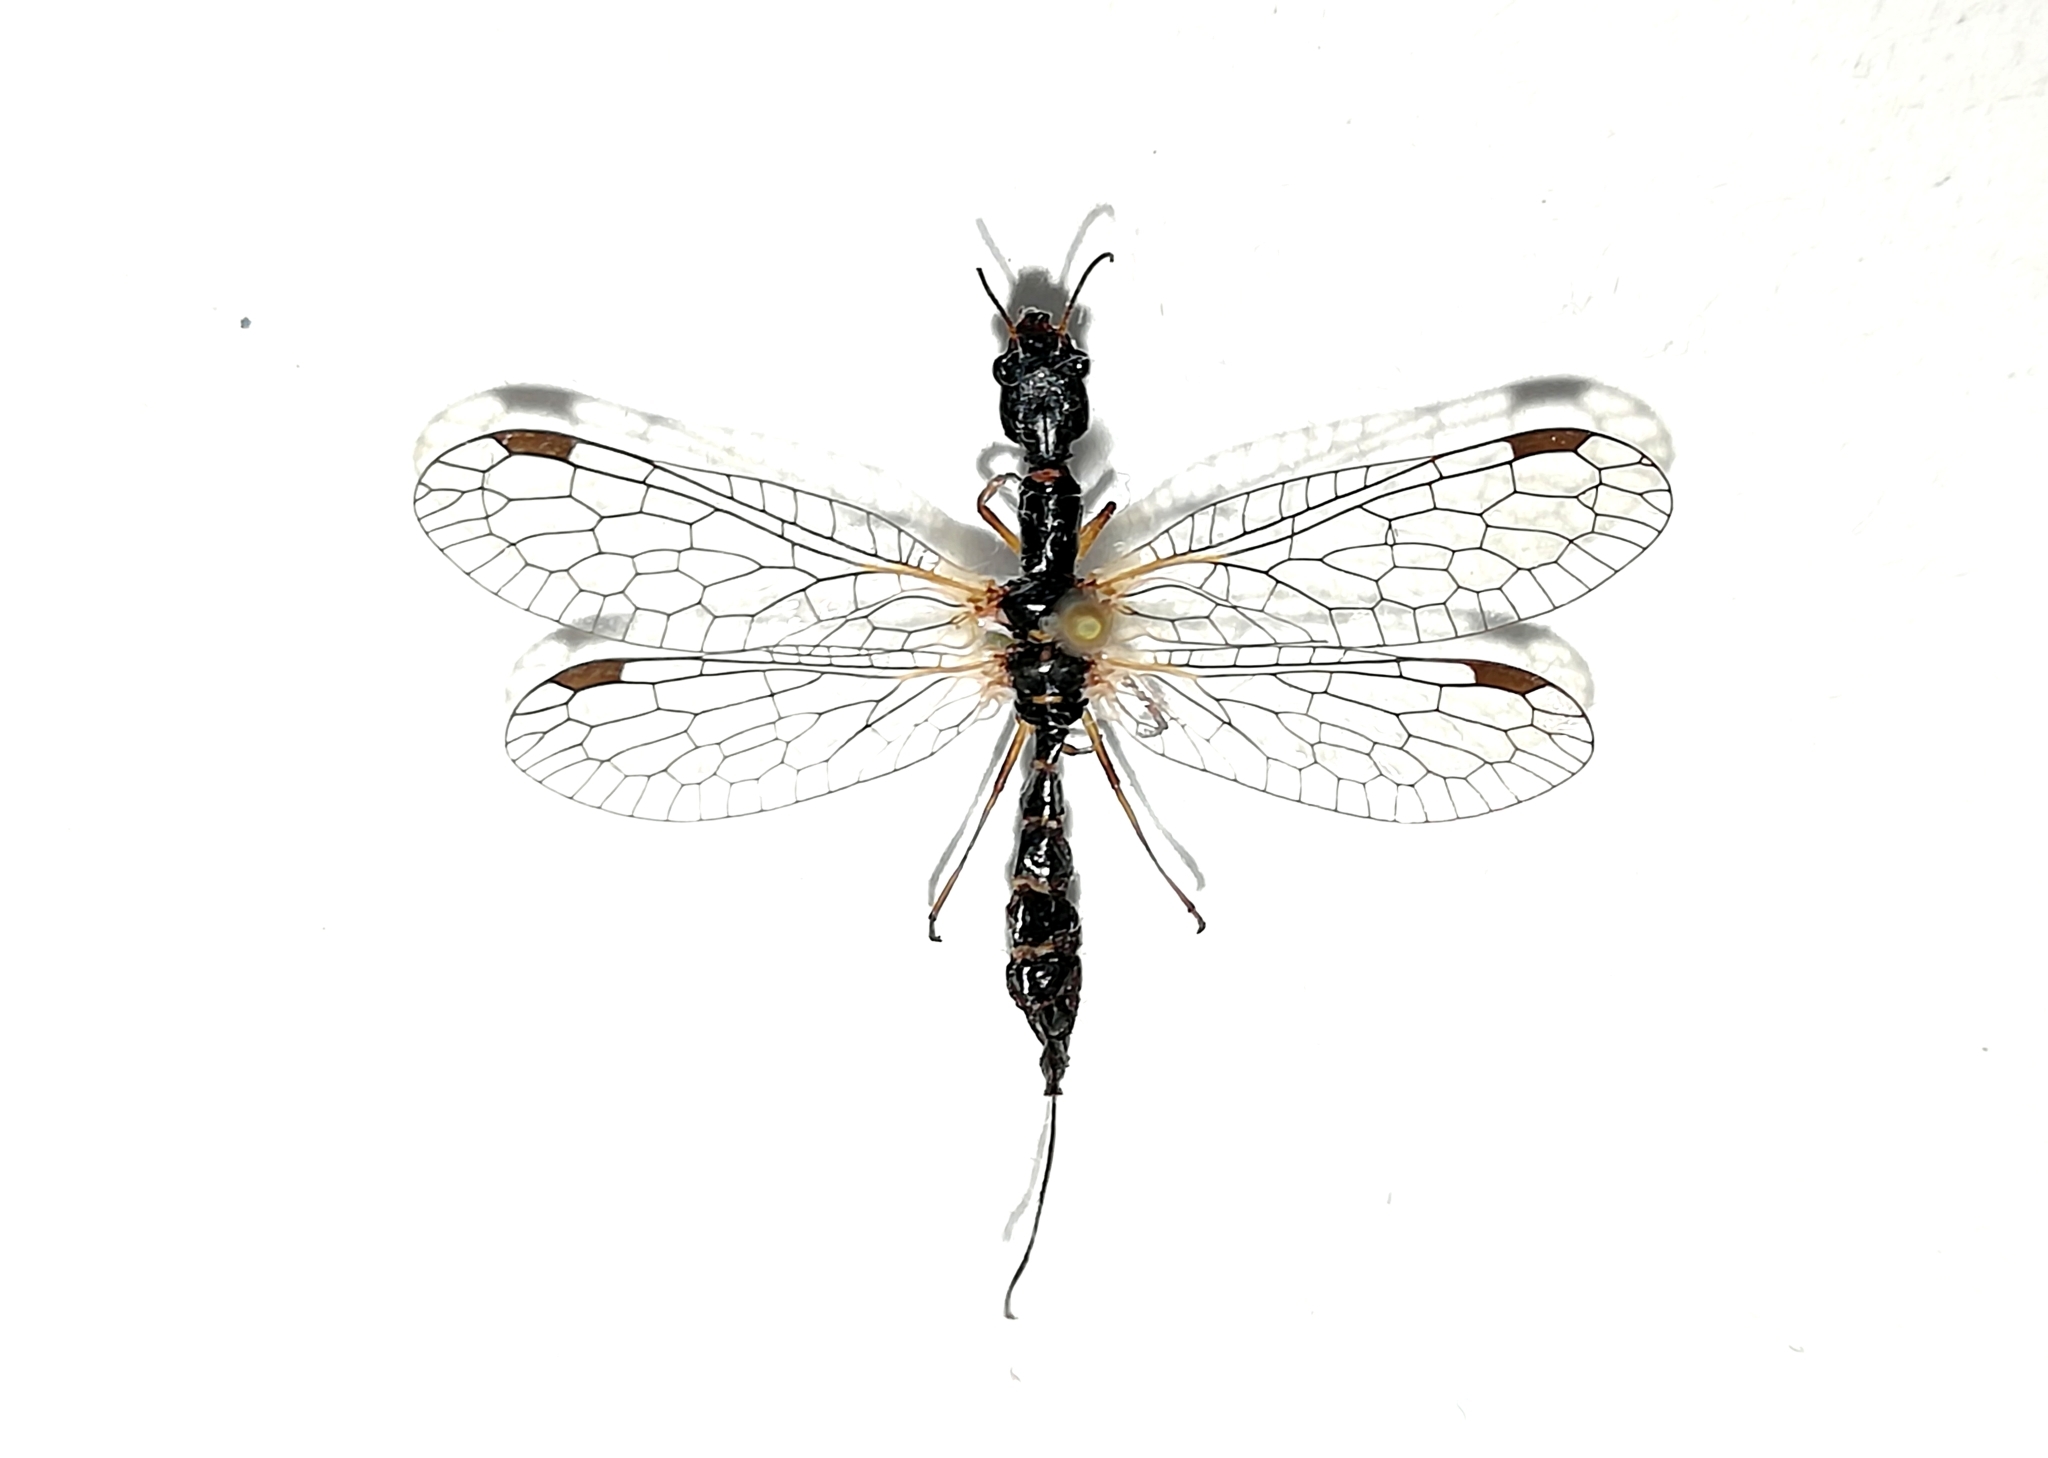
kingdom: Animalia
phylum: Arthropoda
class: Insecta
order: Raphidioptera
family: Inocelliidae
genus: Inocellia
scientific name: Inocellia crassicornis
